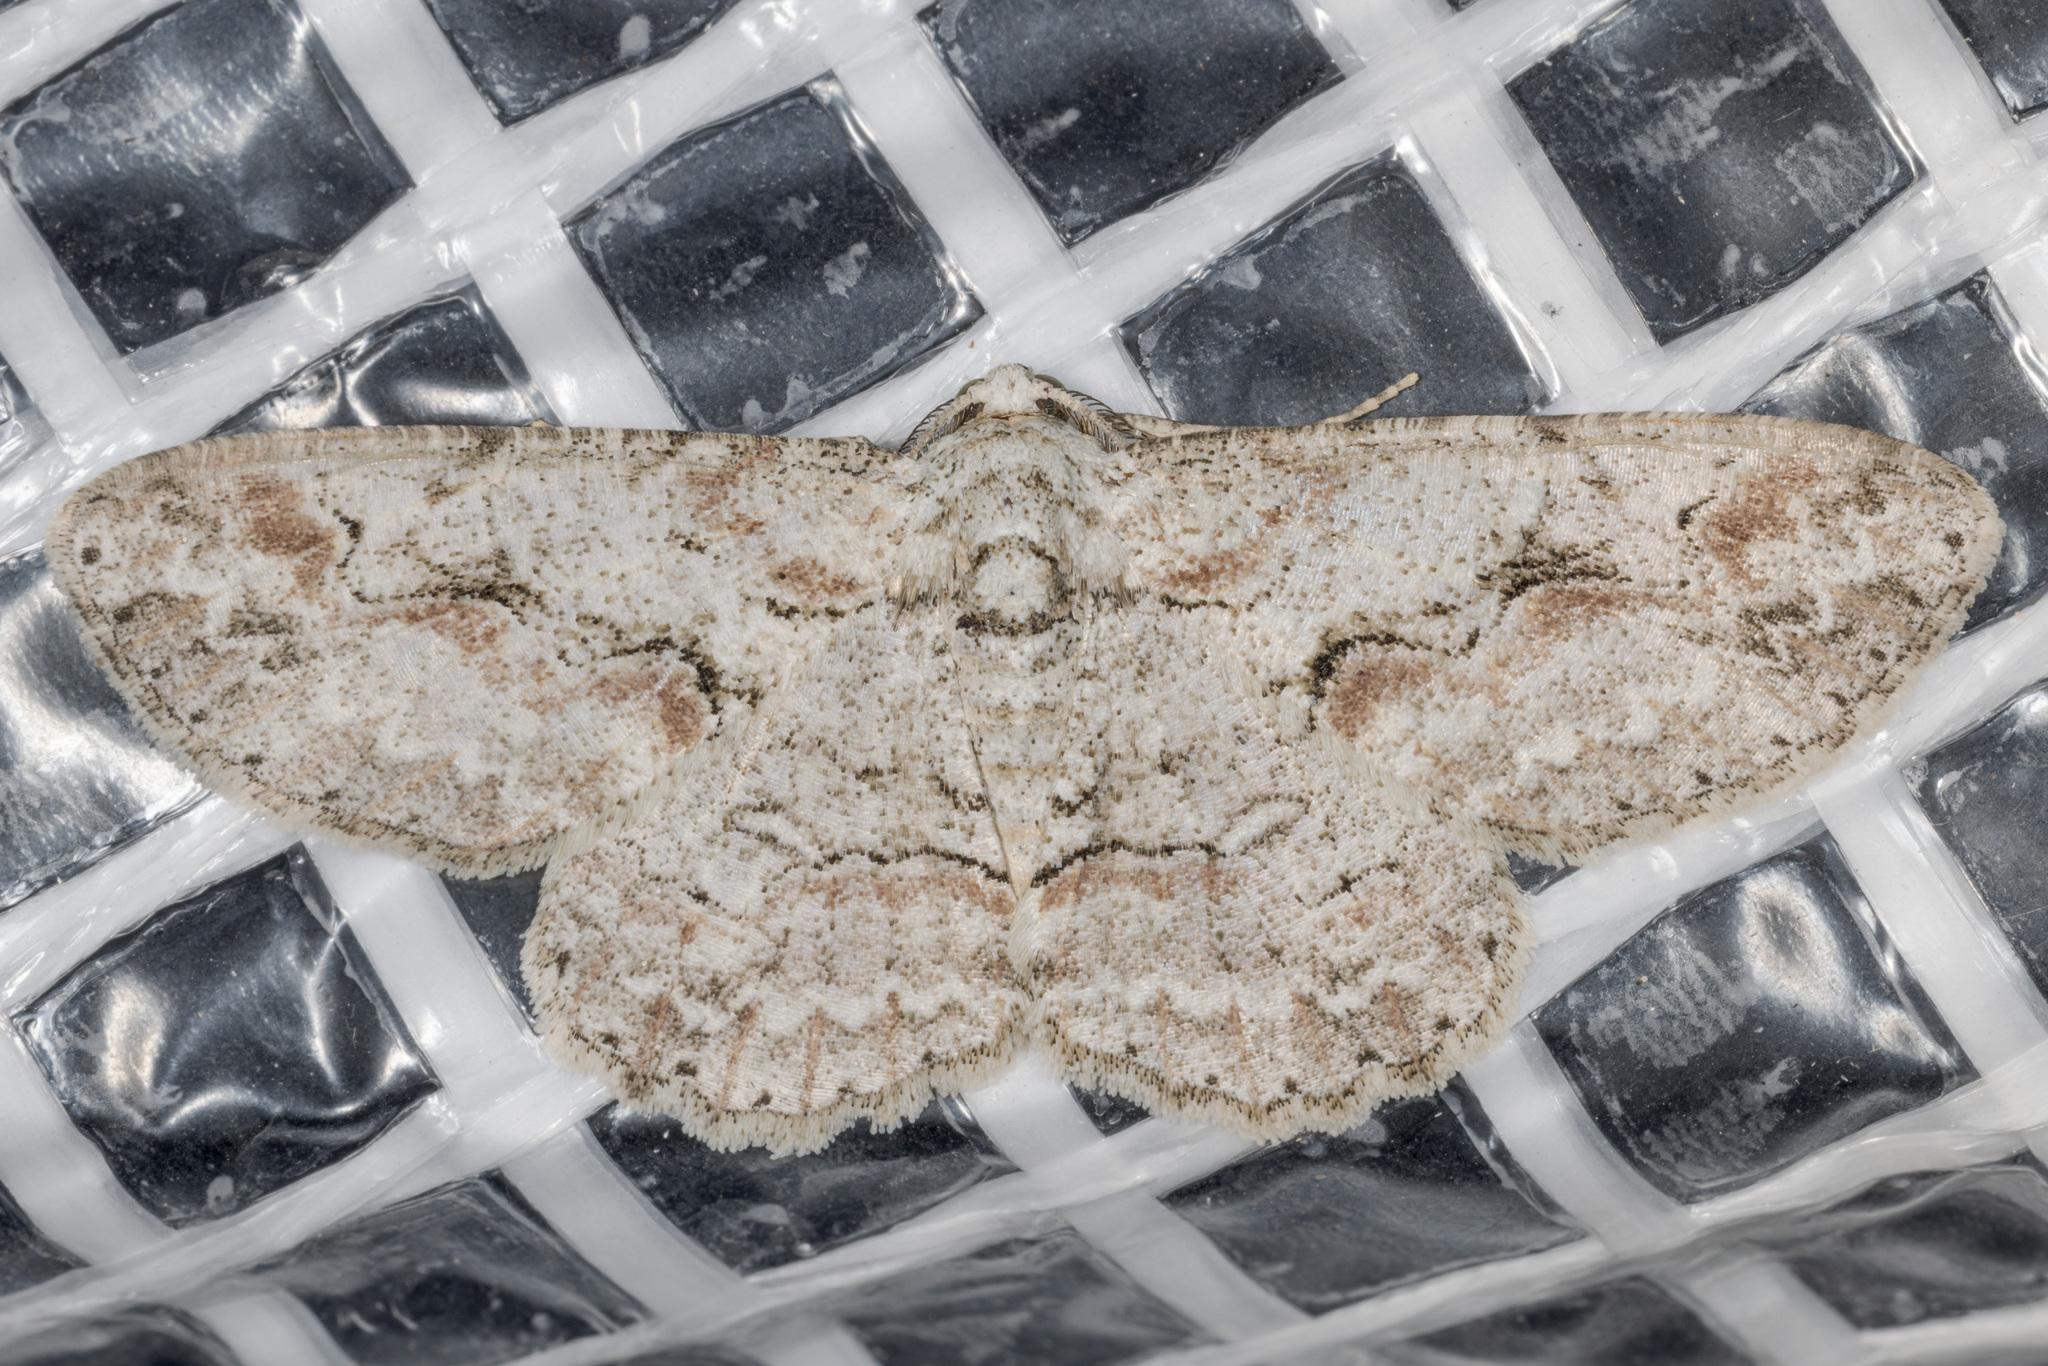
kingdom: Animalia
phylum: Arthropoda
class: Insecta
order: Lepidoptera
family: Geometridae
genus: Iridopsis
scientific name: Iridopsis defectaria
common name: Brown-shaded gray
